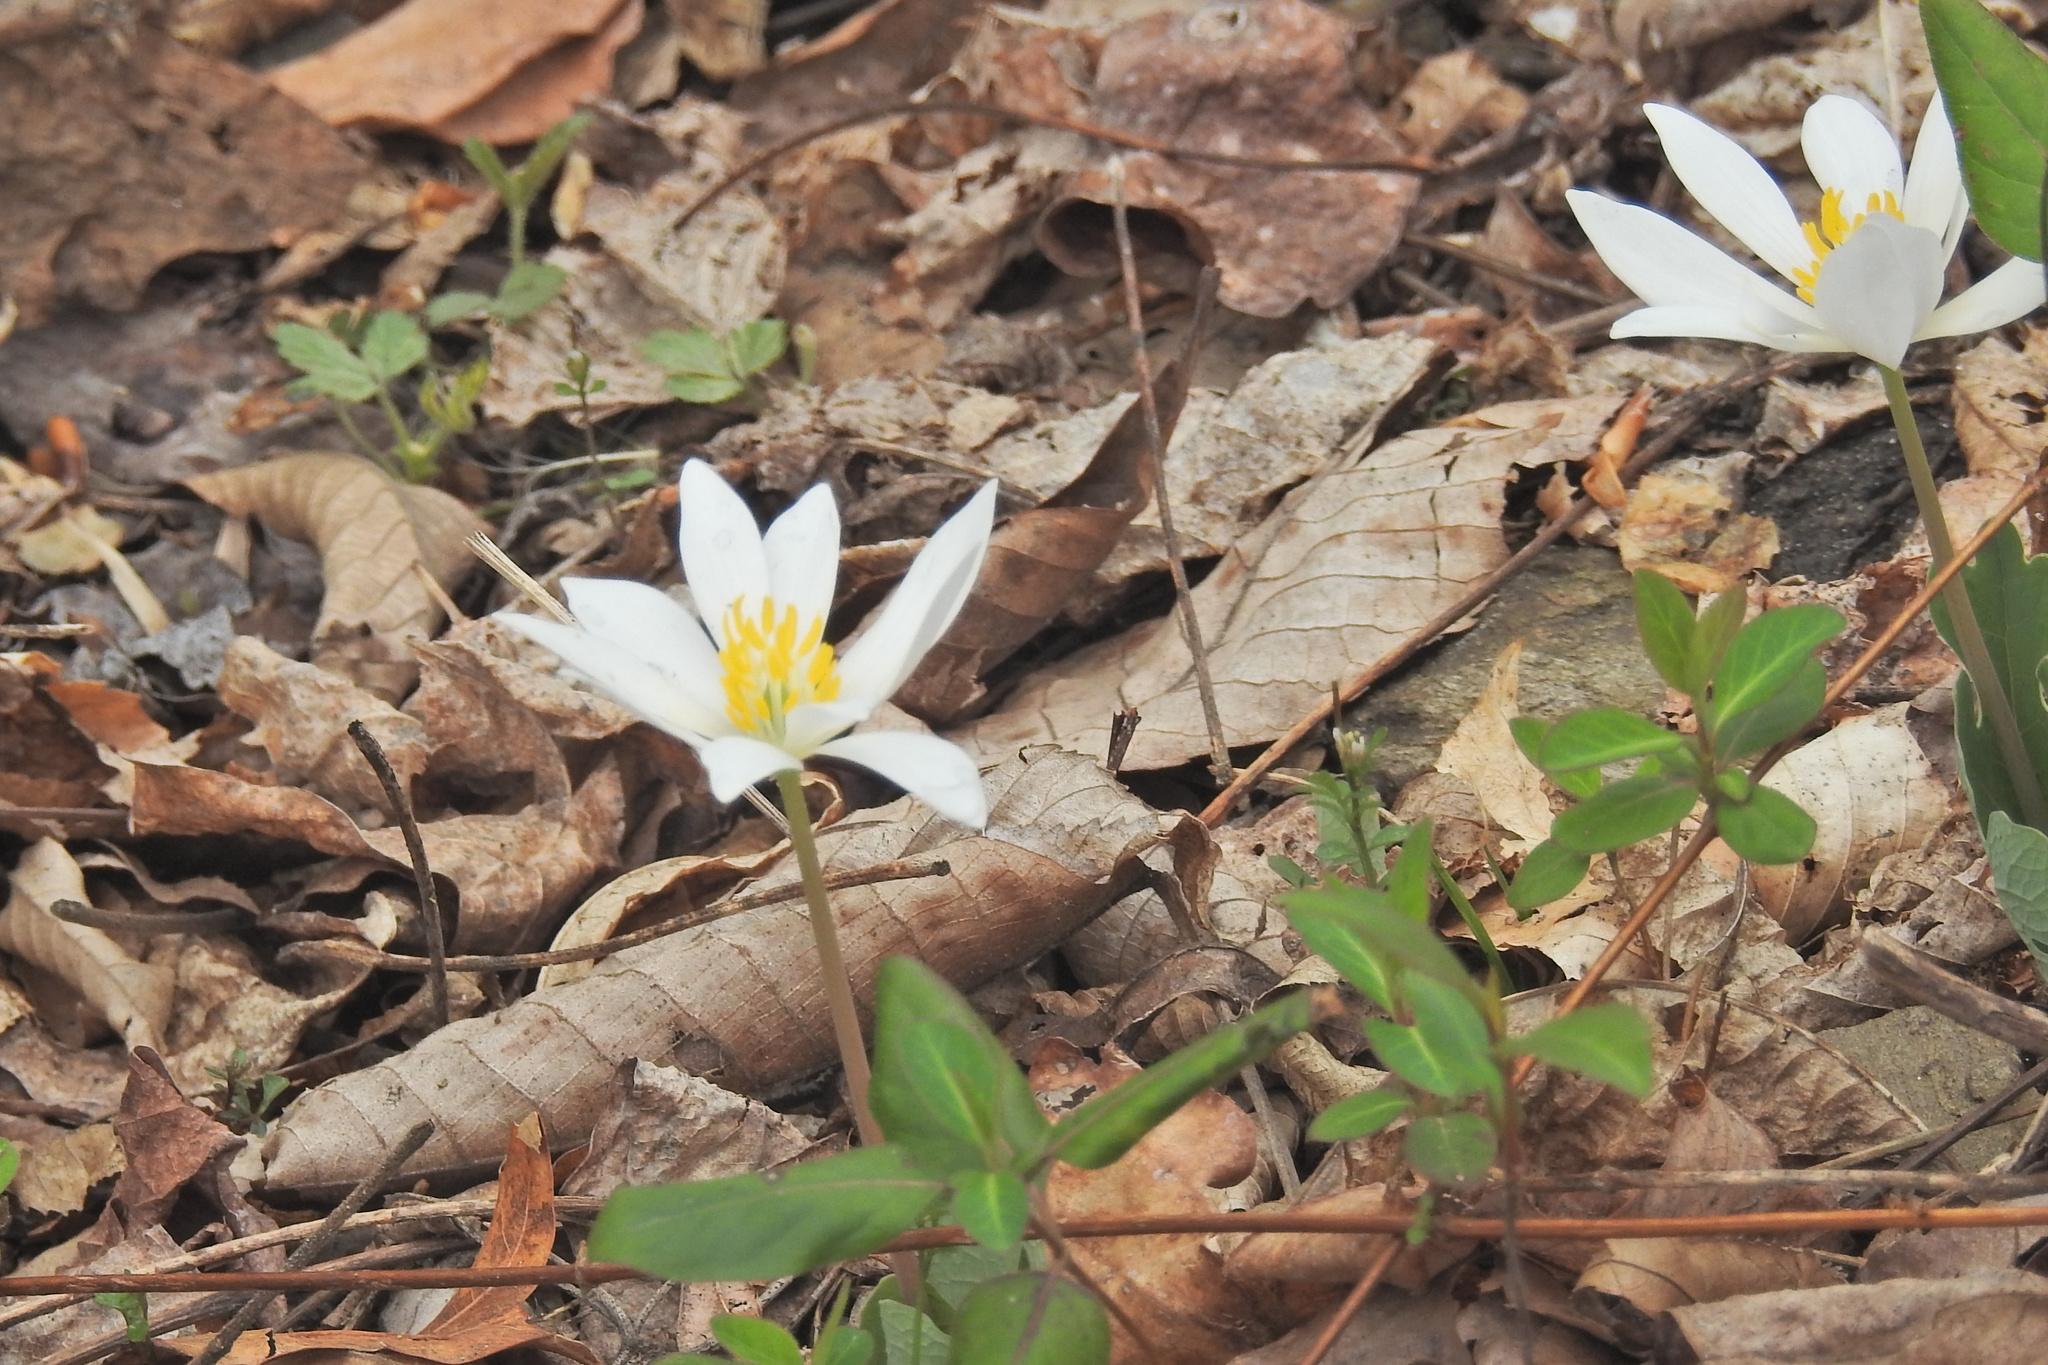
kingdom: Plantae
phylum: Tracheophyta
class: Magnoliopsida
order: Ranunculales
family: Papaveraceae
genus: Sanguinaria
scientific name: Sanguinaria canadensis
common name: Bloodroot
